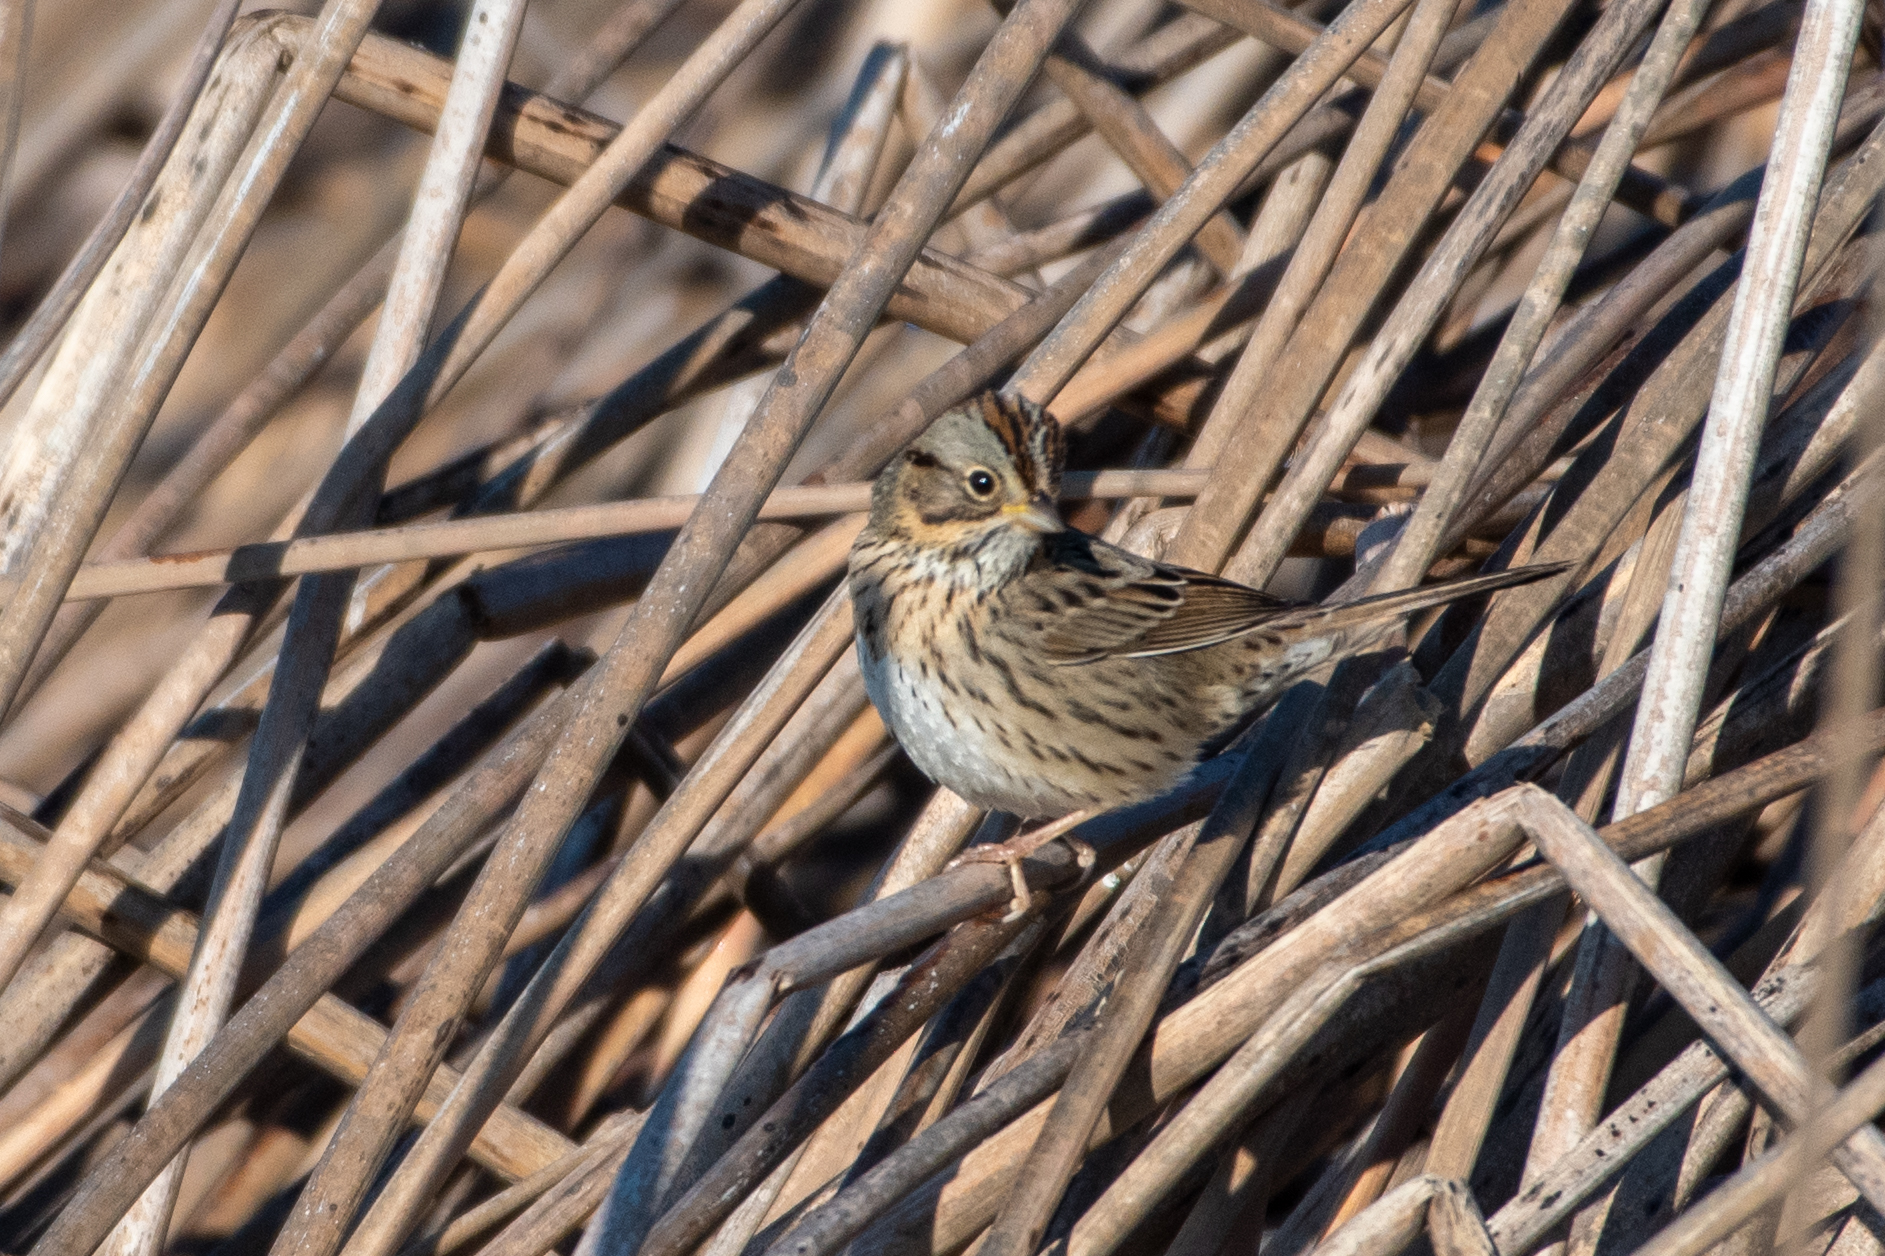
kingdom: Animalia
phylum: Chordata
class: Aves
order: Passeriformes
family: Passerellidae
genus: Melospiza
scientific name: Melospiza lincolnii
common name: Lincoln's sparrow
